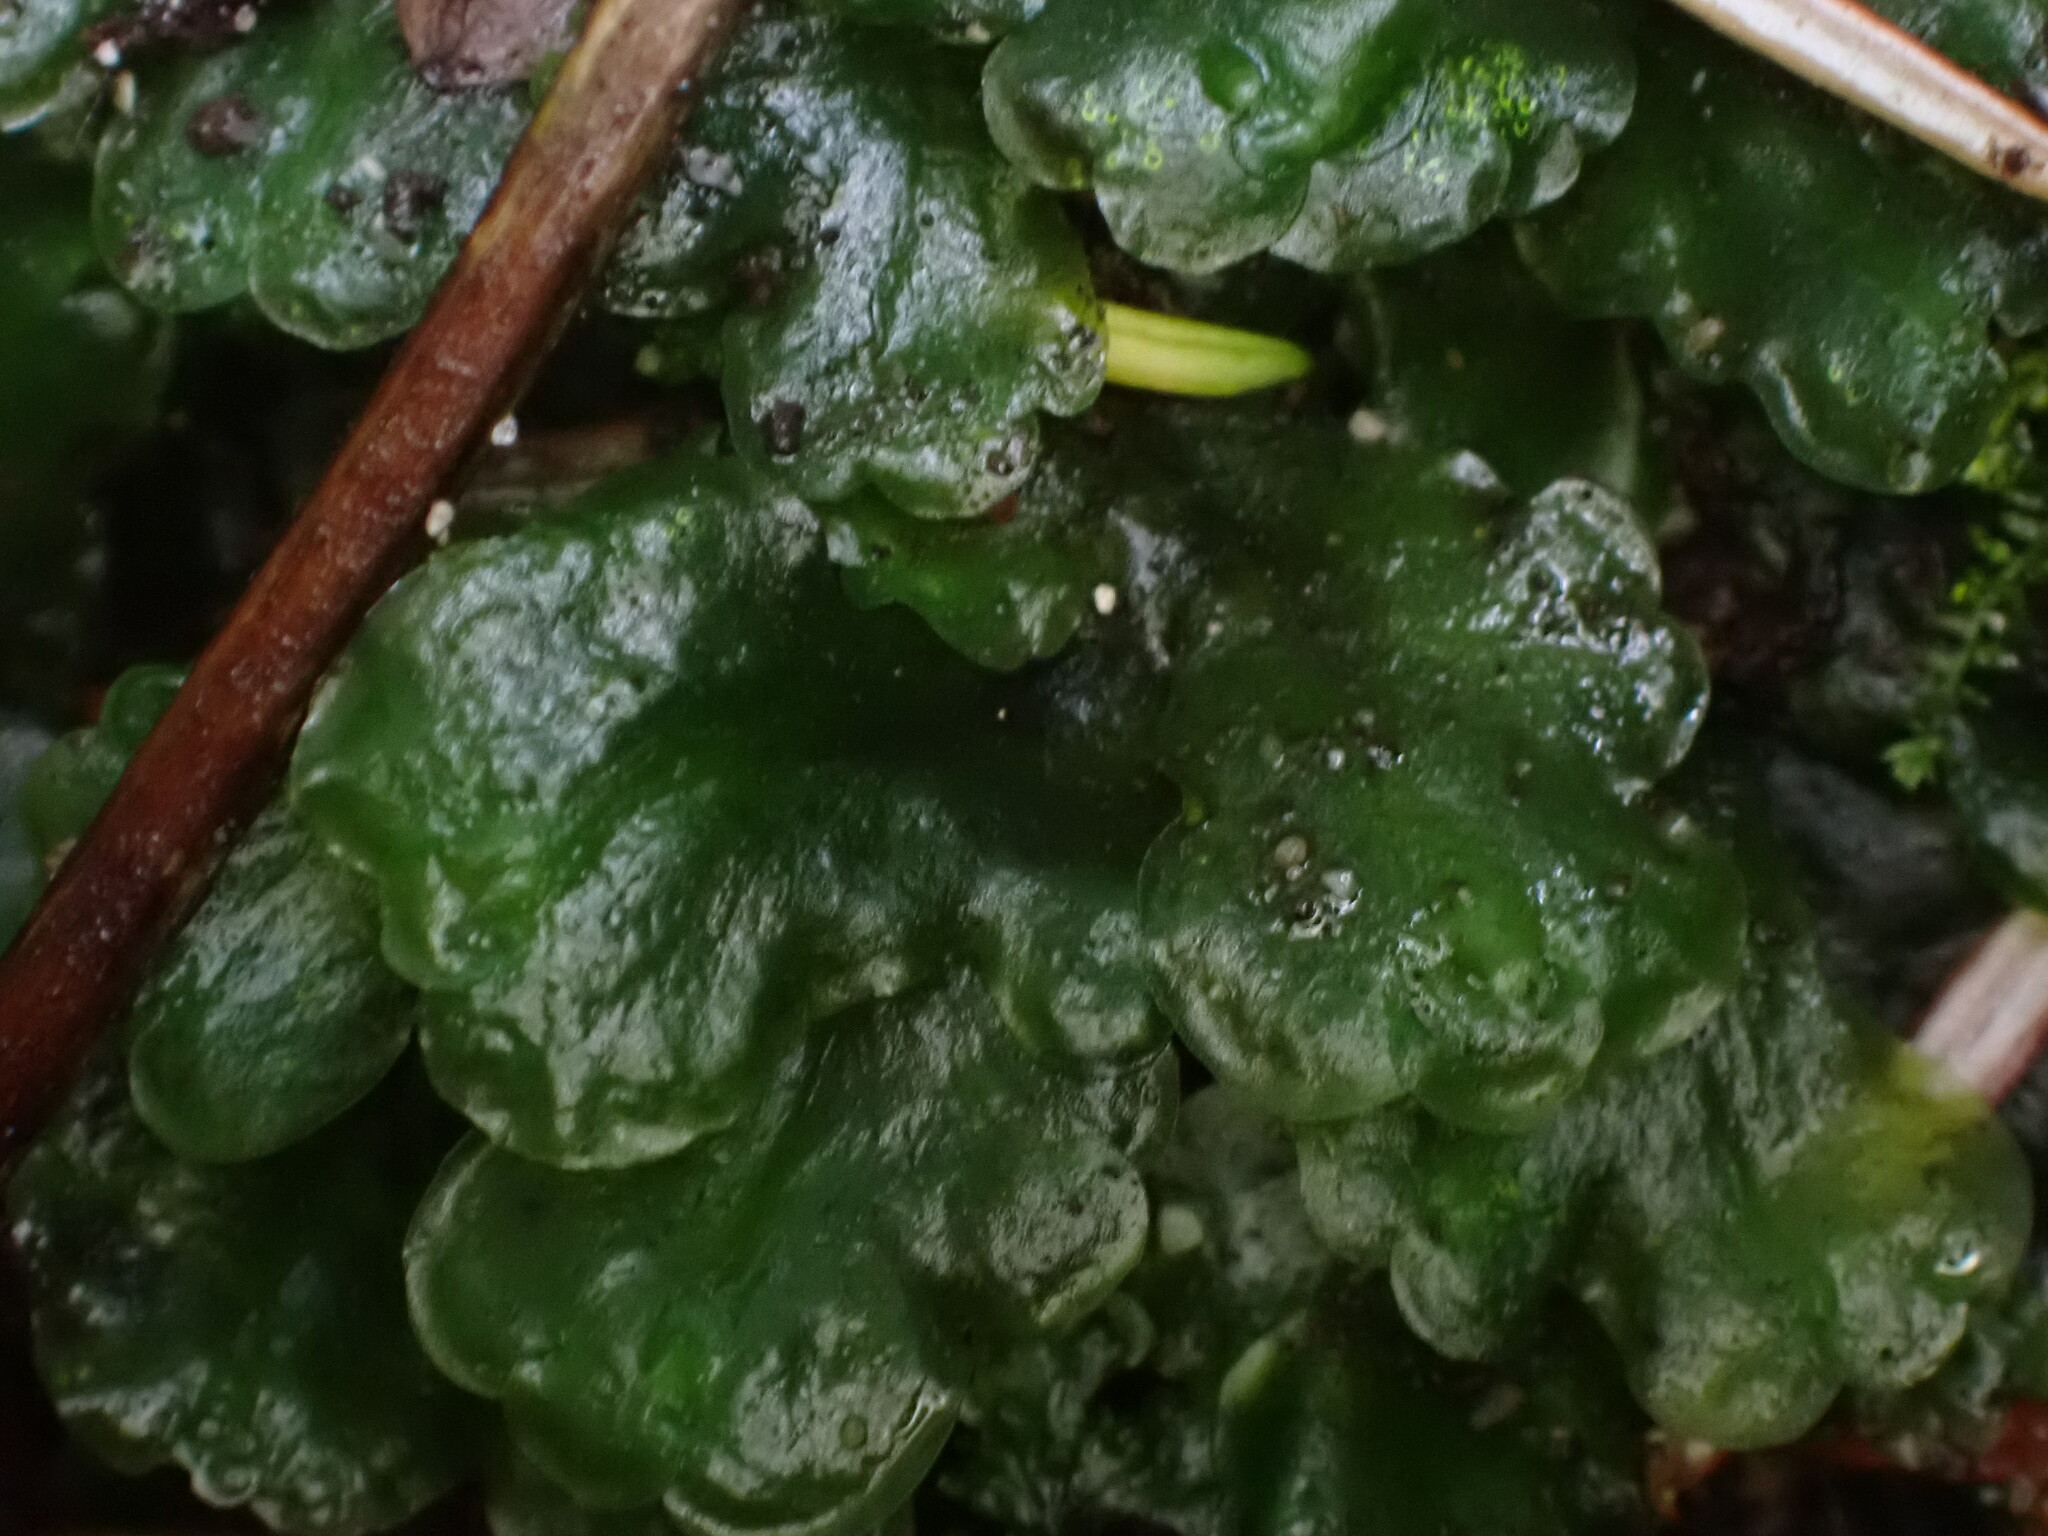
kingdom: Plantae
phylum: Marchantiophyta
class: Jungermanniopsida
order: Pelliales
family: Pelliaceae
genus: Pellia
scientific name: Pellia neesiana
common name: Nees  pellia
